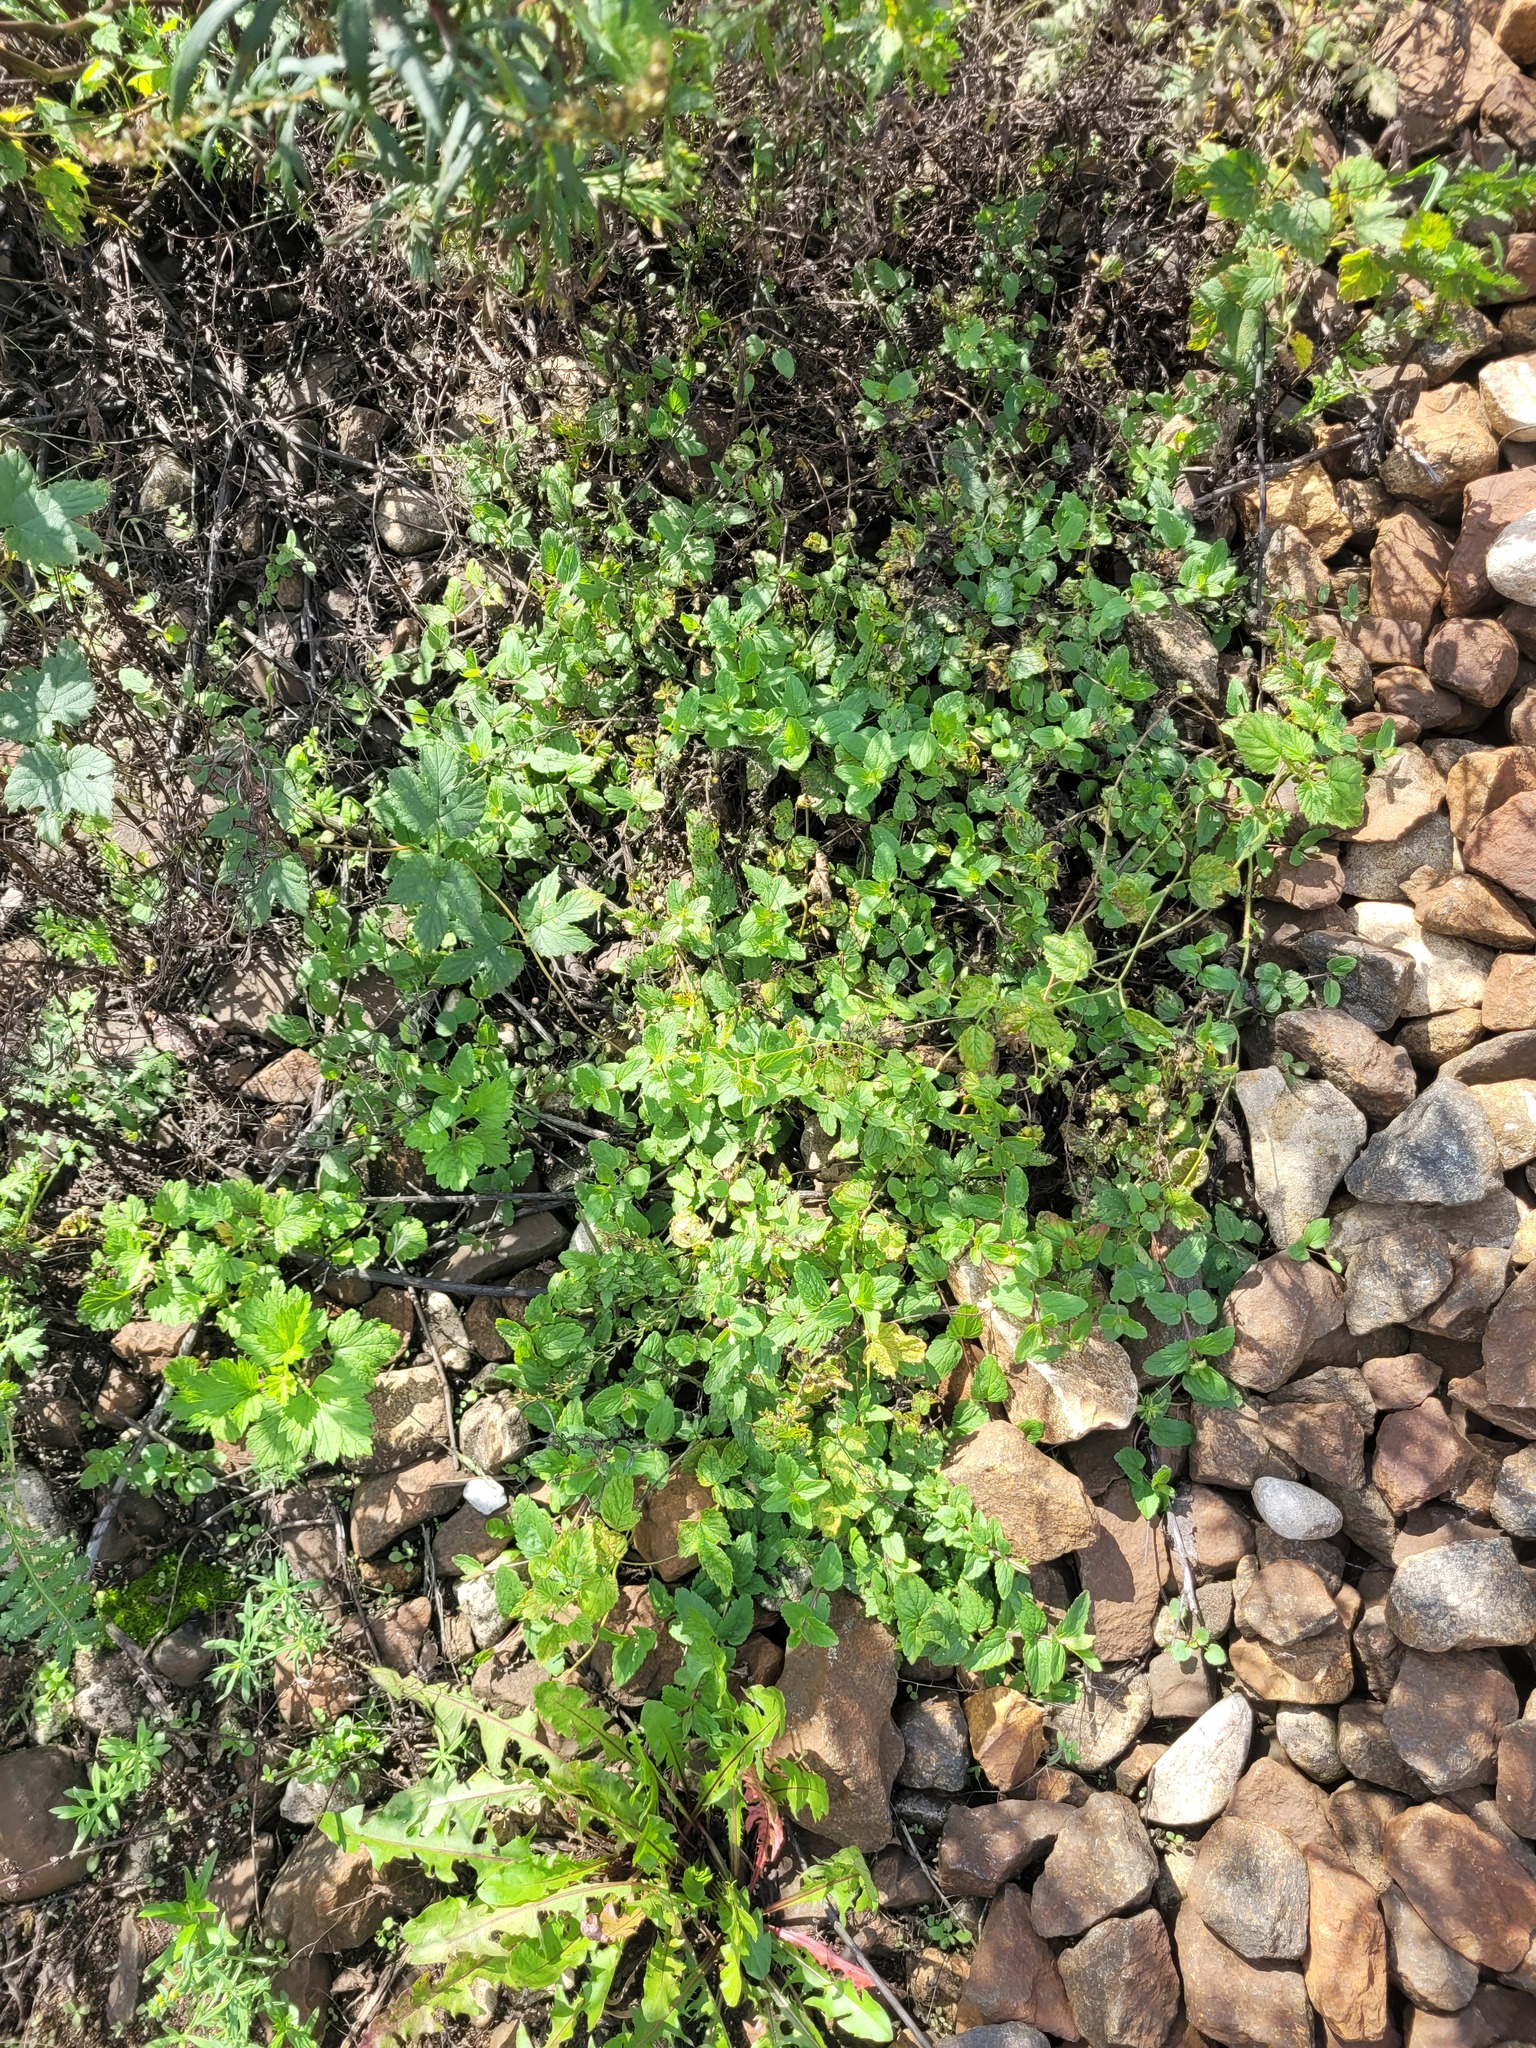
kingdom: Plantae
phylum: Tracheophyta
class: Magnoliopsida
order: Lamiales
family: Plantaginaceae
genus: Veronica
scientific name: Veronica chamaedrys
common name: Germander speedwell
